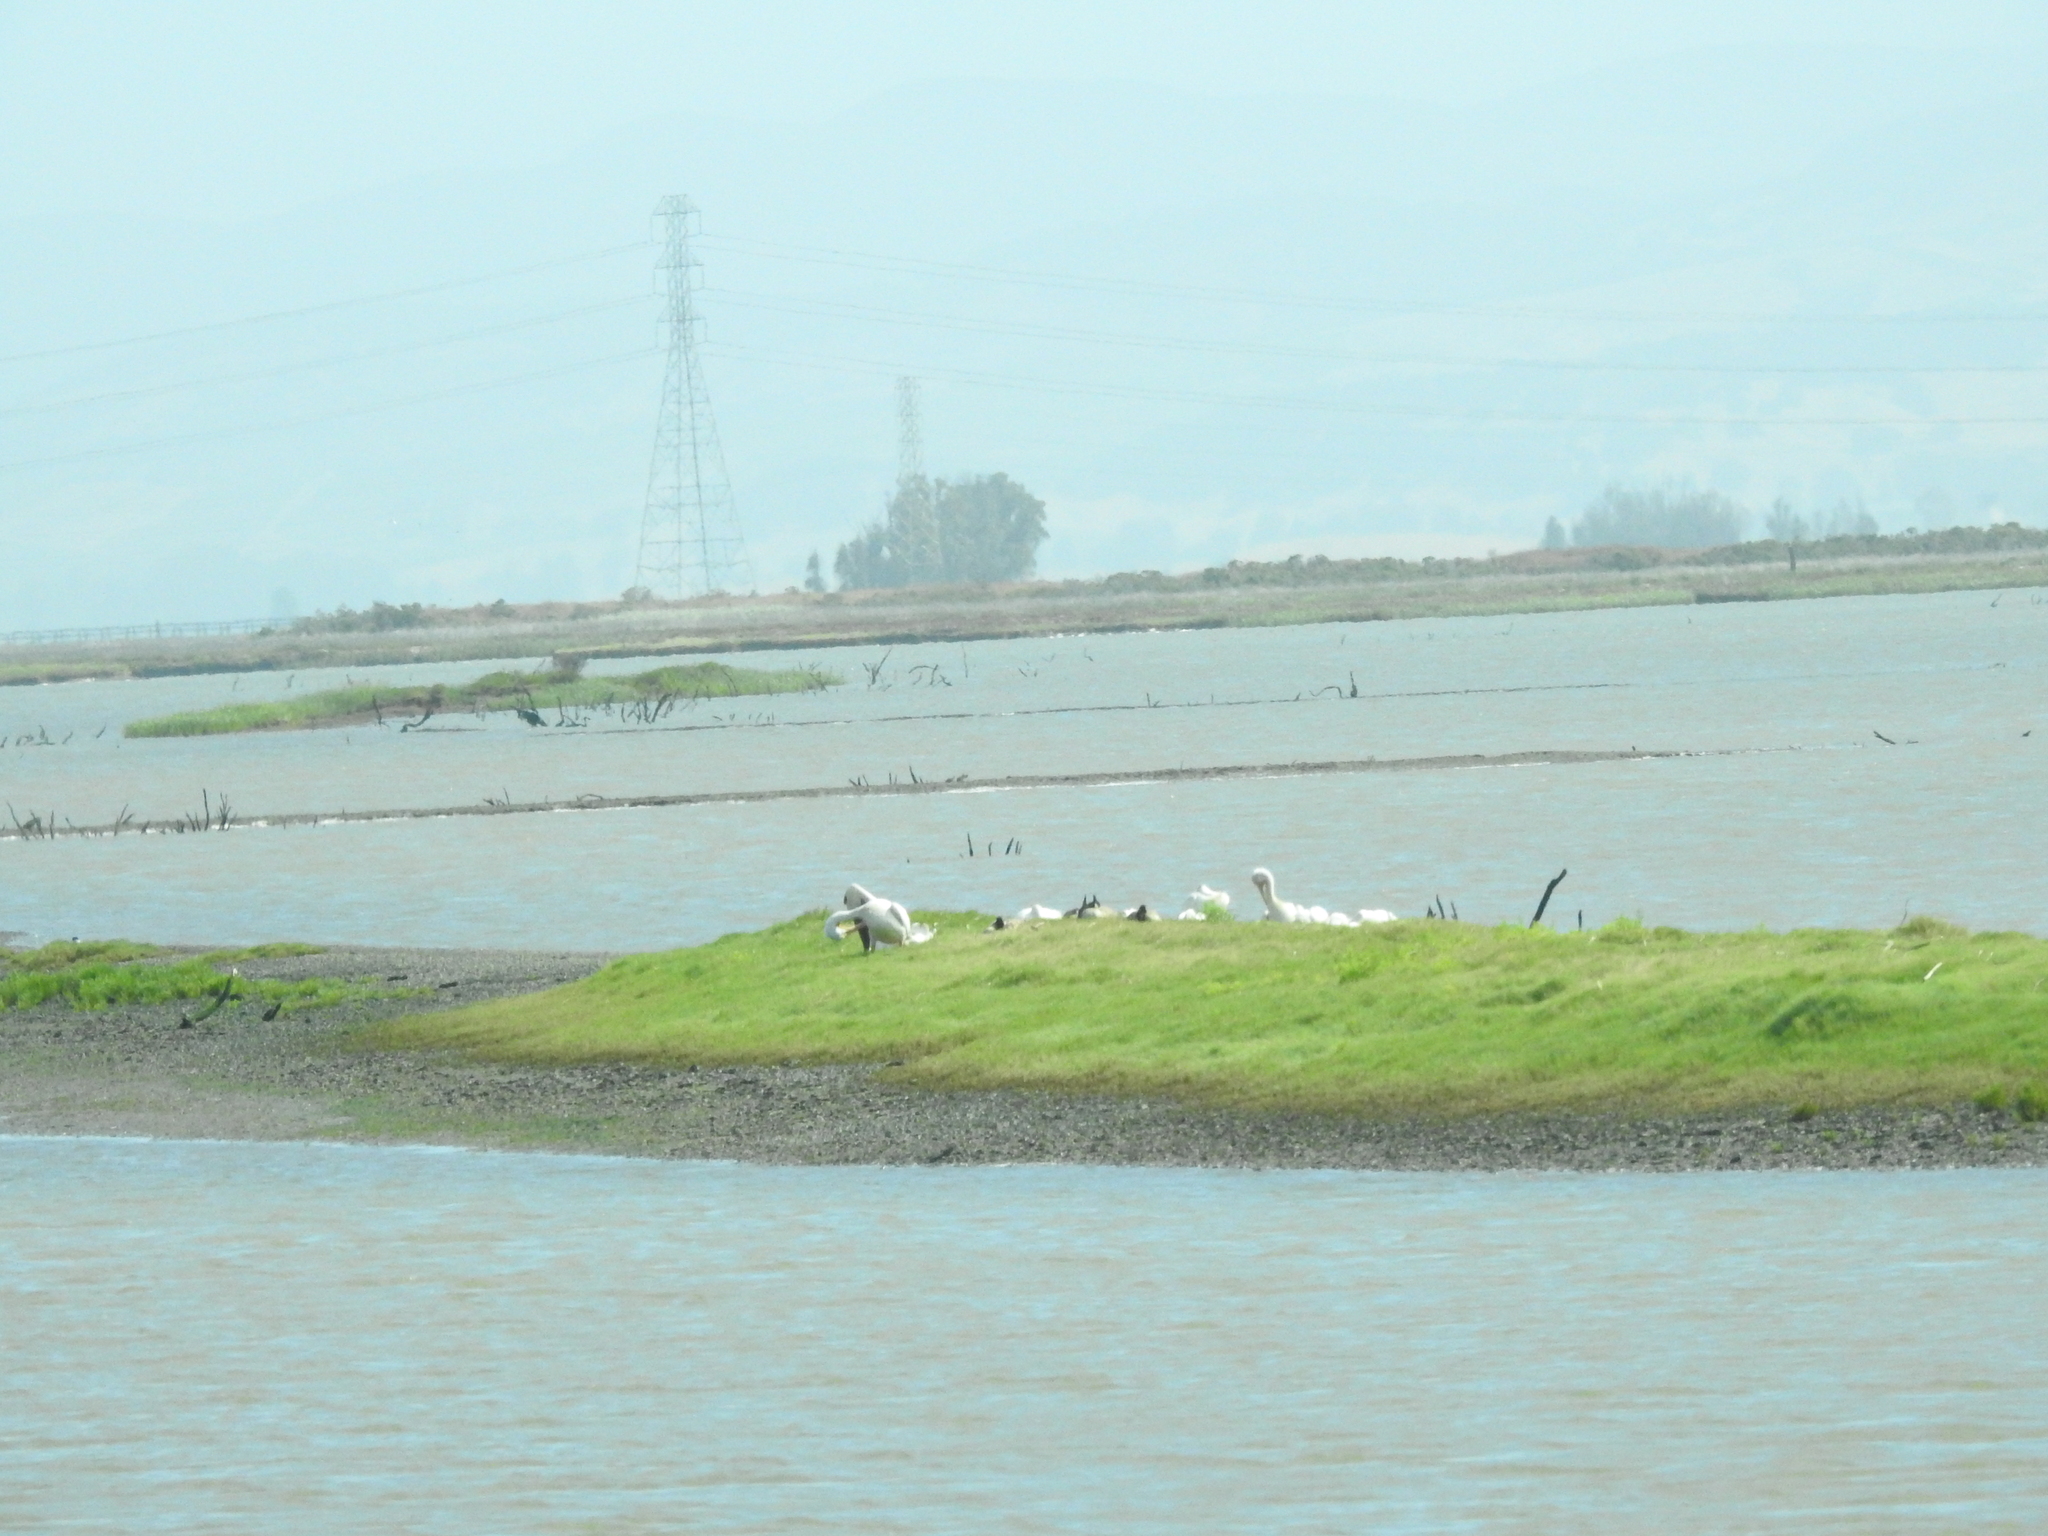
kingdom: Animalia
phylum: Chordata
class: Aves
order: Pelecaniformes
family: Pelecanidae
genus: Pelecanus
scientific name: Pelecanus erythrorhynchos
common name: American white pelican
